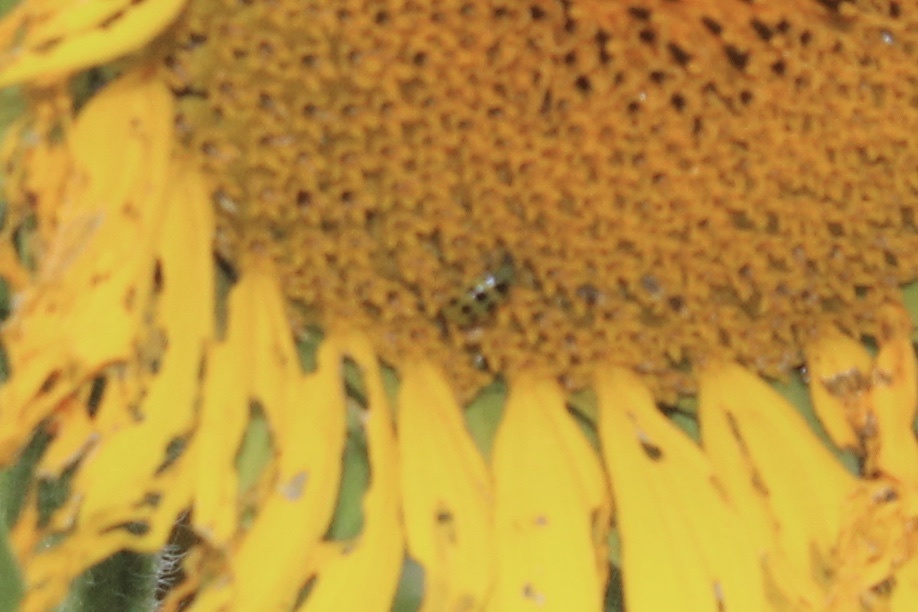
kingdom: Animalia
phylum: Arthropoda
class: Insecta
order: Coleoptera
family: Chrysomelidae
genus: Diabrotica
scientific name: Diabrotica undecimpunctata
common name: Spotted cucumber beetle
